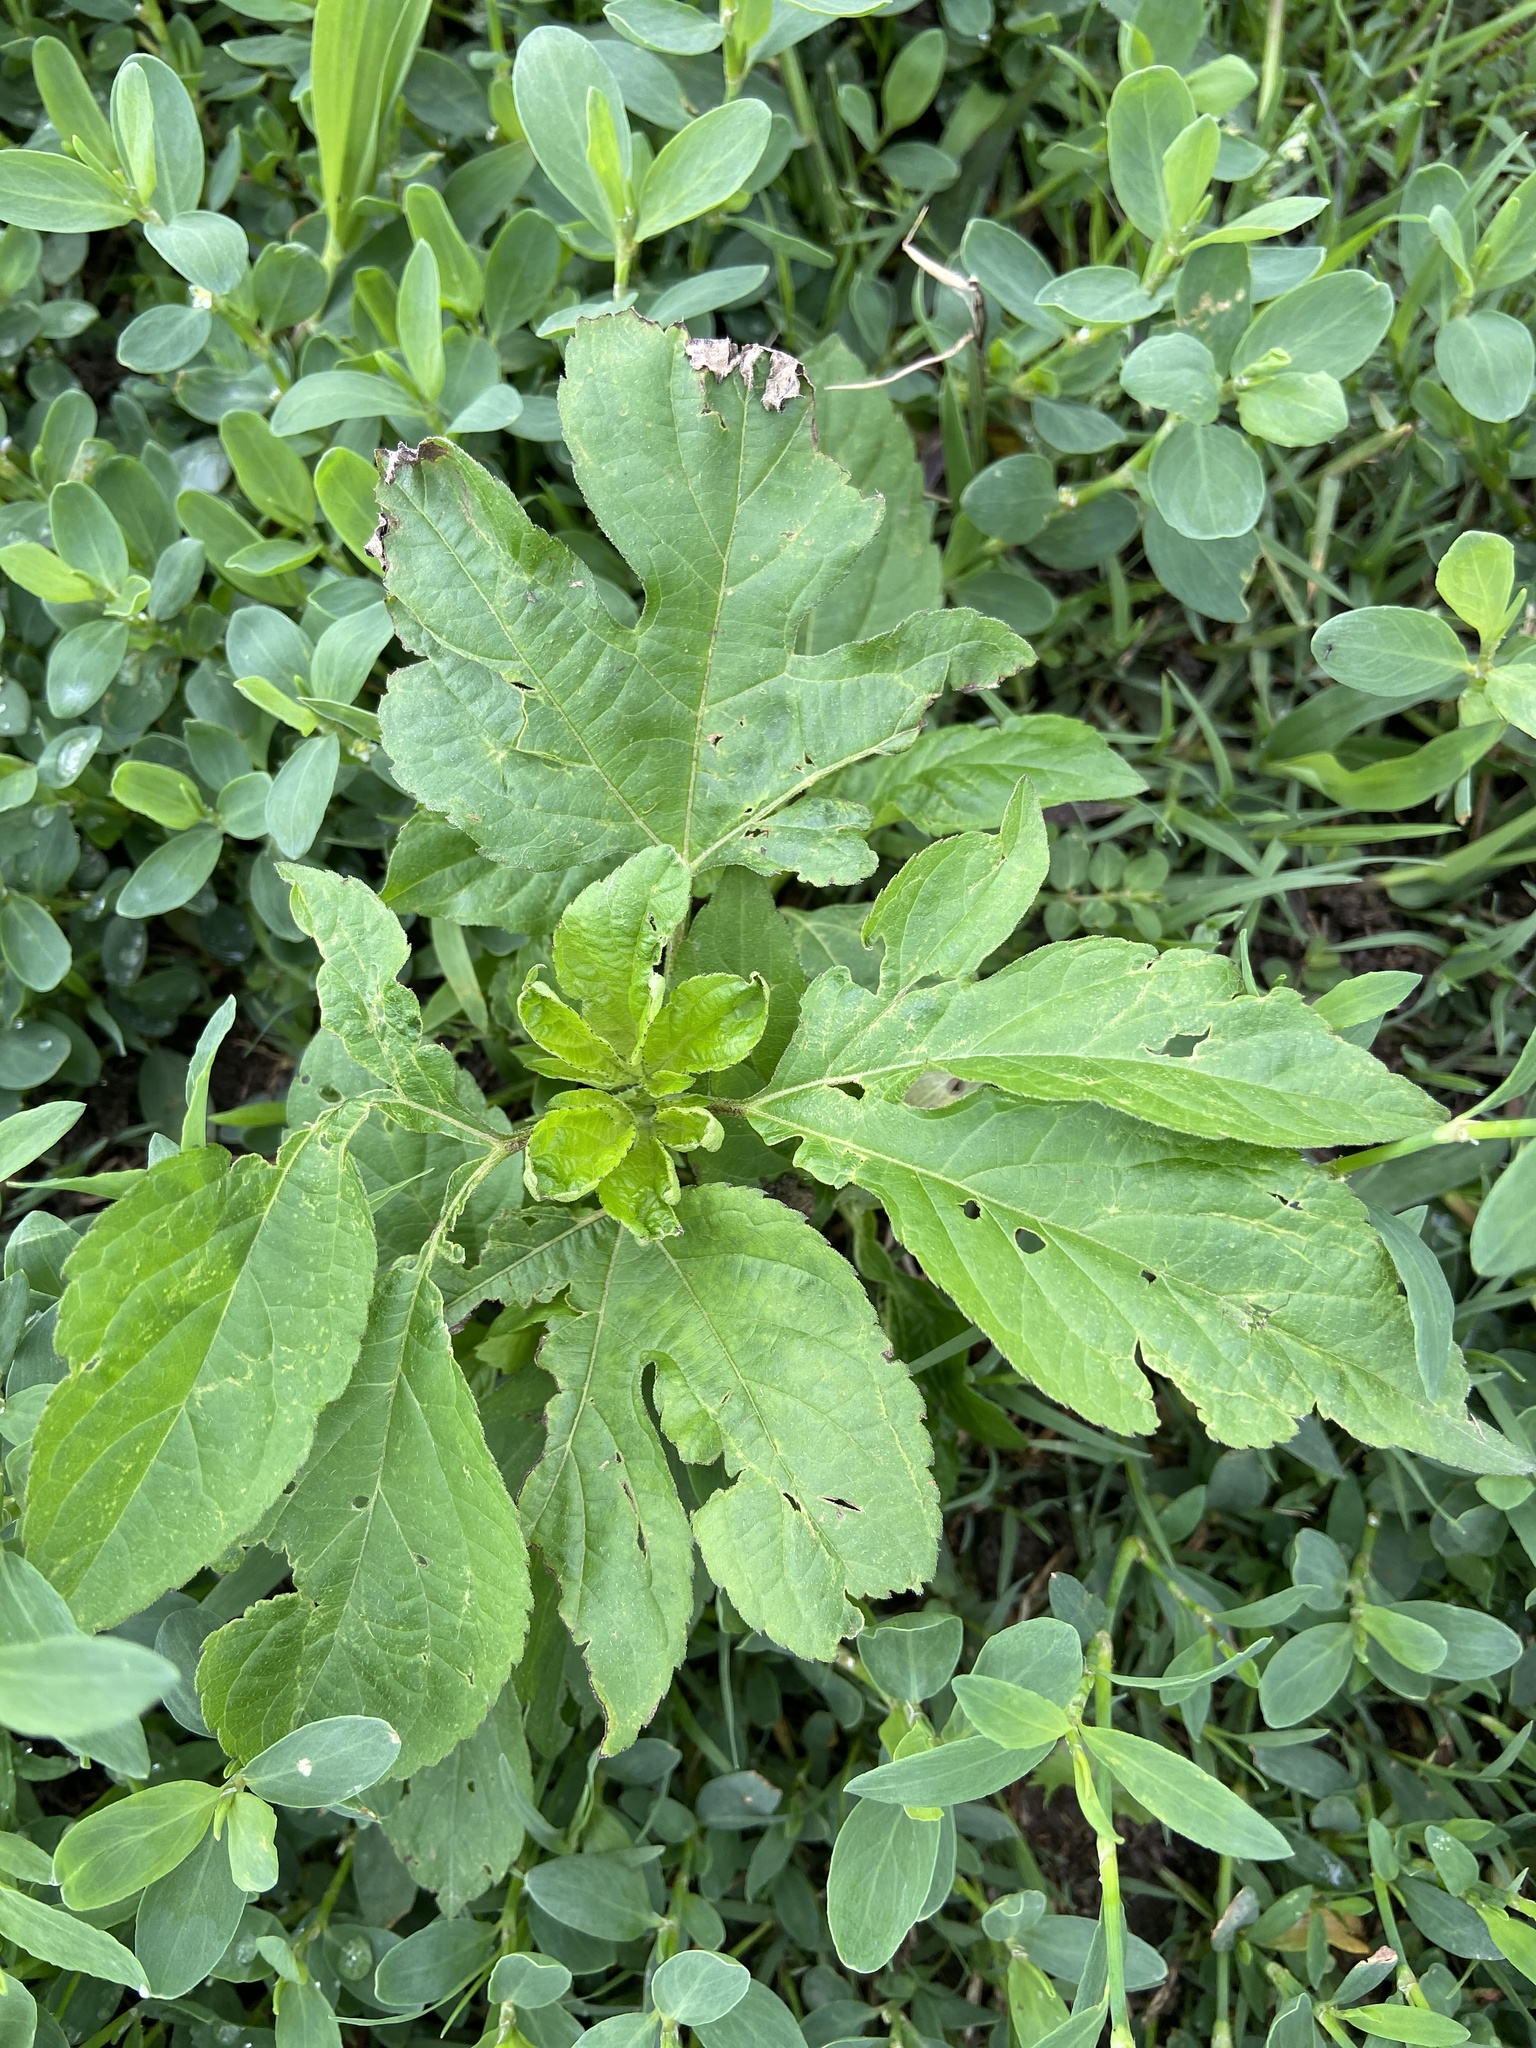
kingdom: Plantae
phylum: Tracheophyta
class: Magnoliopsida
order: Asterales
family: Asteraceae
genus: Ambrosia
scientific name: Ambrosia trifida
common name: Giant ragweed
